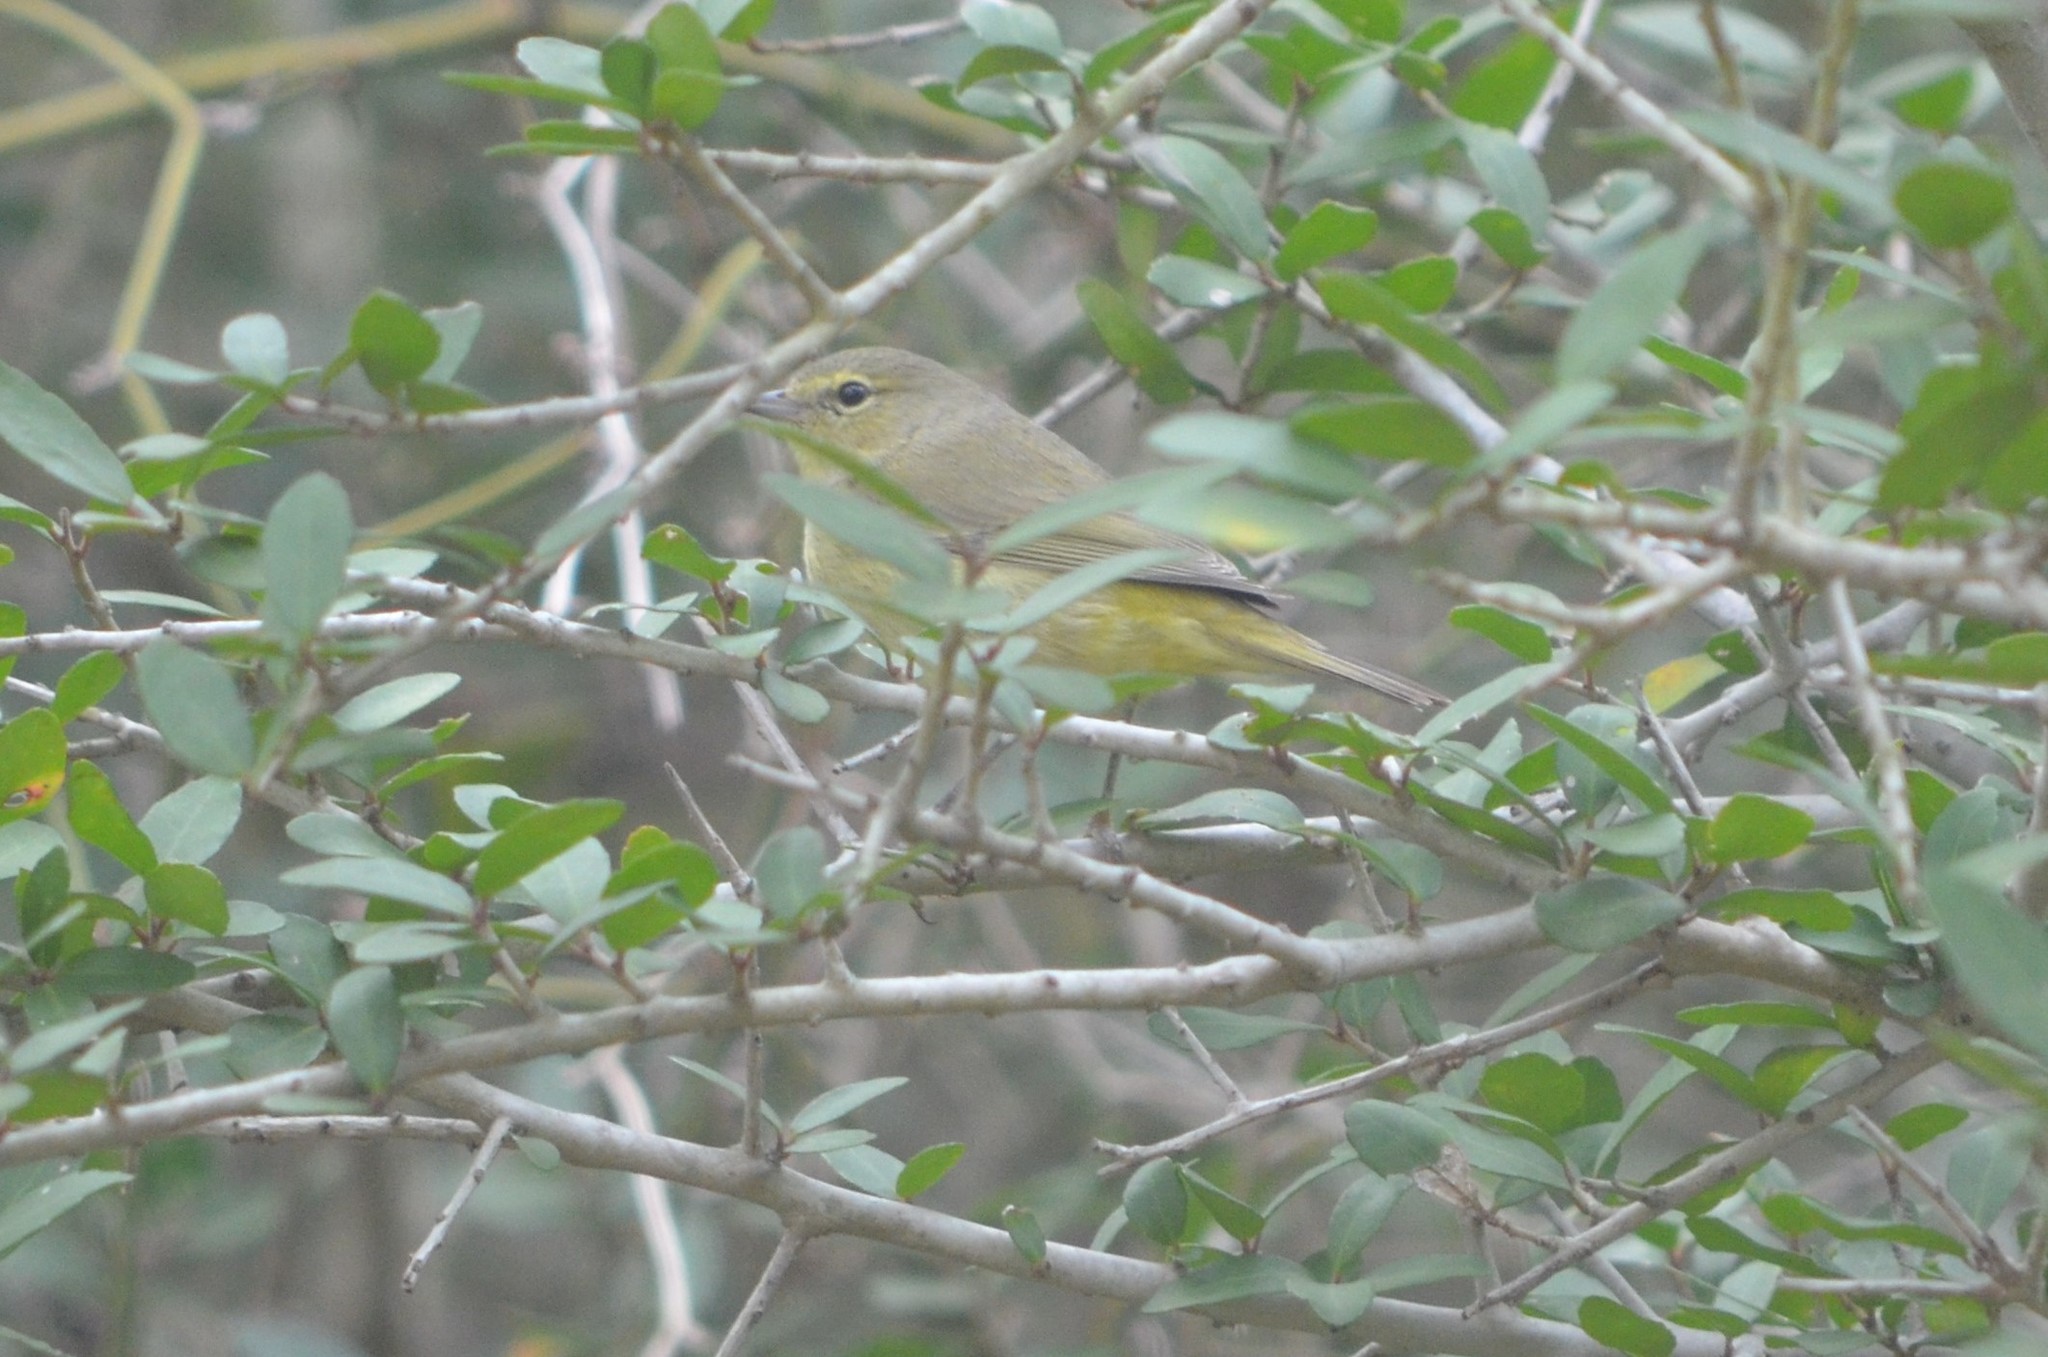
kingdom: Animalia
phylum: Chordata
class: Aves
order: Passeriformes
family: Parulidae
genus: Leiothlypis
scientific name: Leiothlypis celata
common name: Orange-crowned warbler
